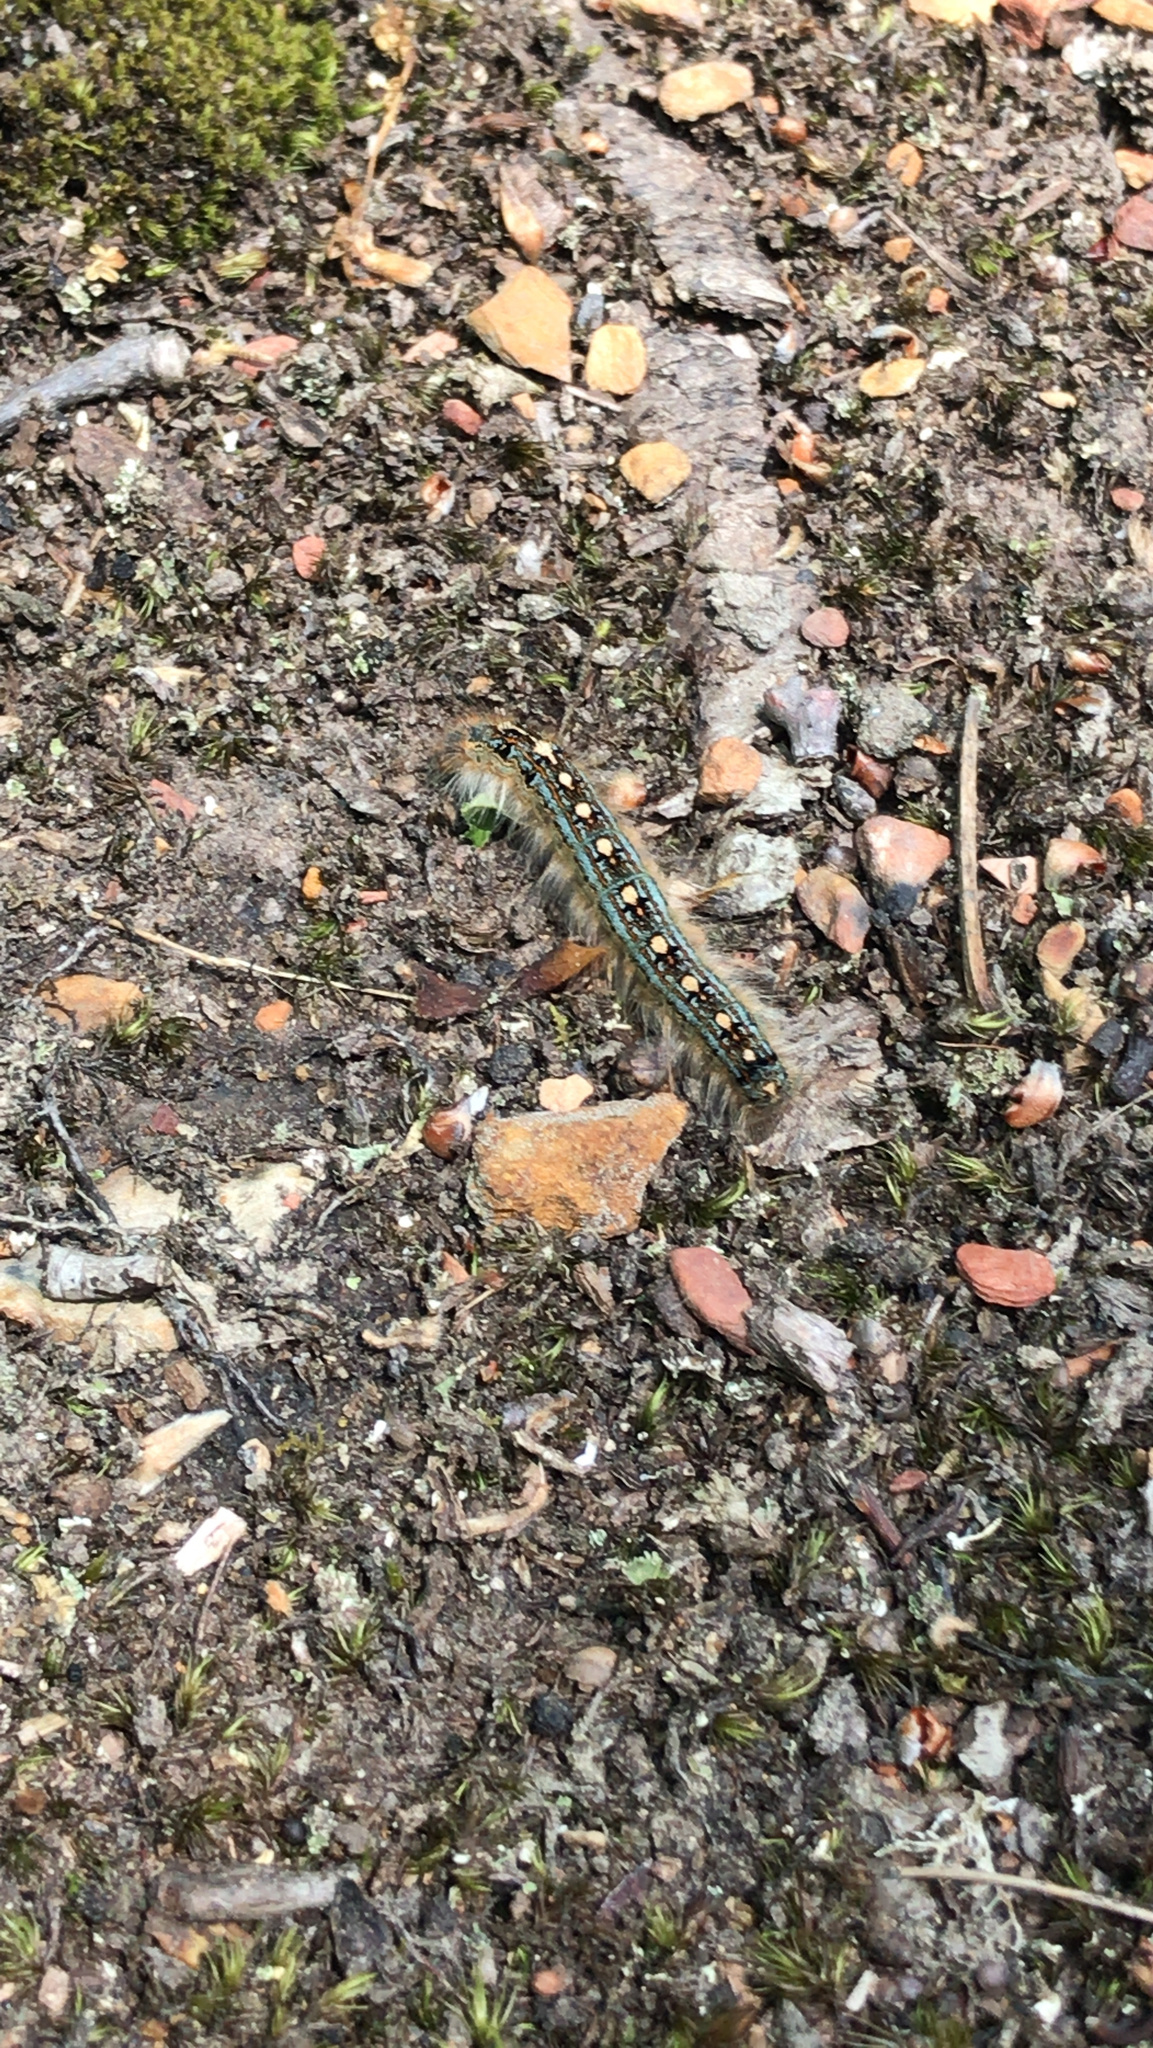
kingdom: Animalia
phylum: Arthropoda
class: Insecta
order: Lepidoptera
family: Lasiocampidae
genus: Malacosoma
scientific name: Malacosoma disstria
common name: Forest tent caterpillar
